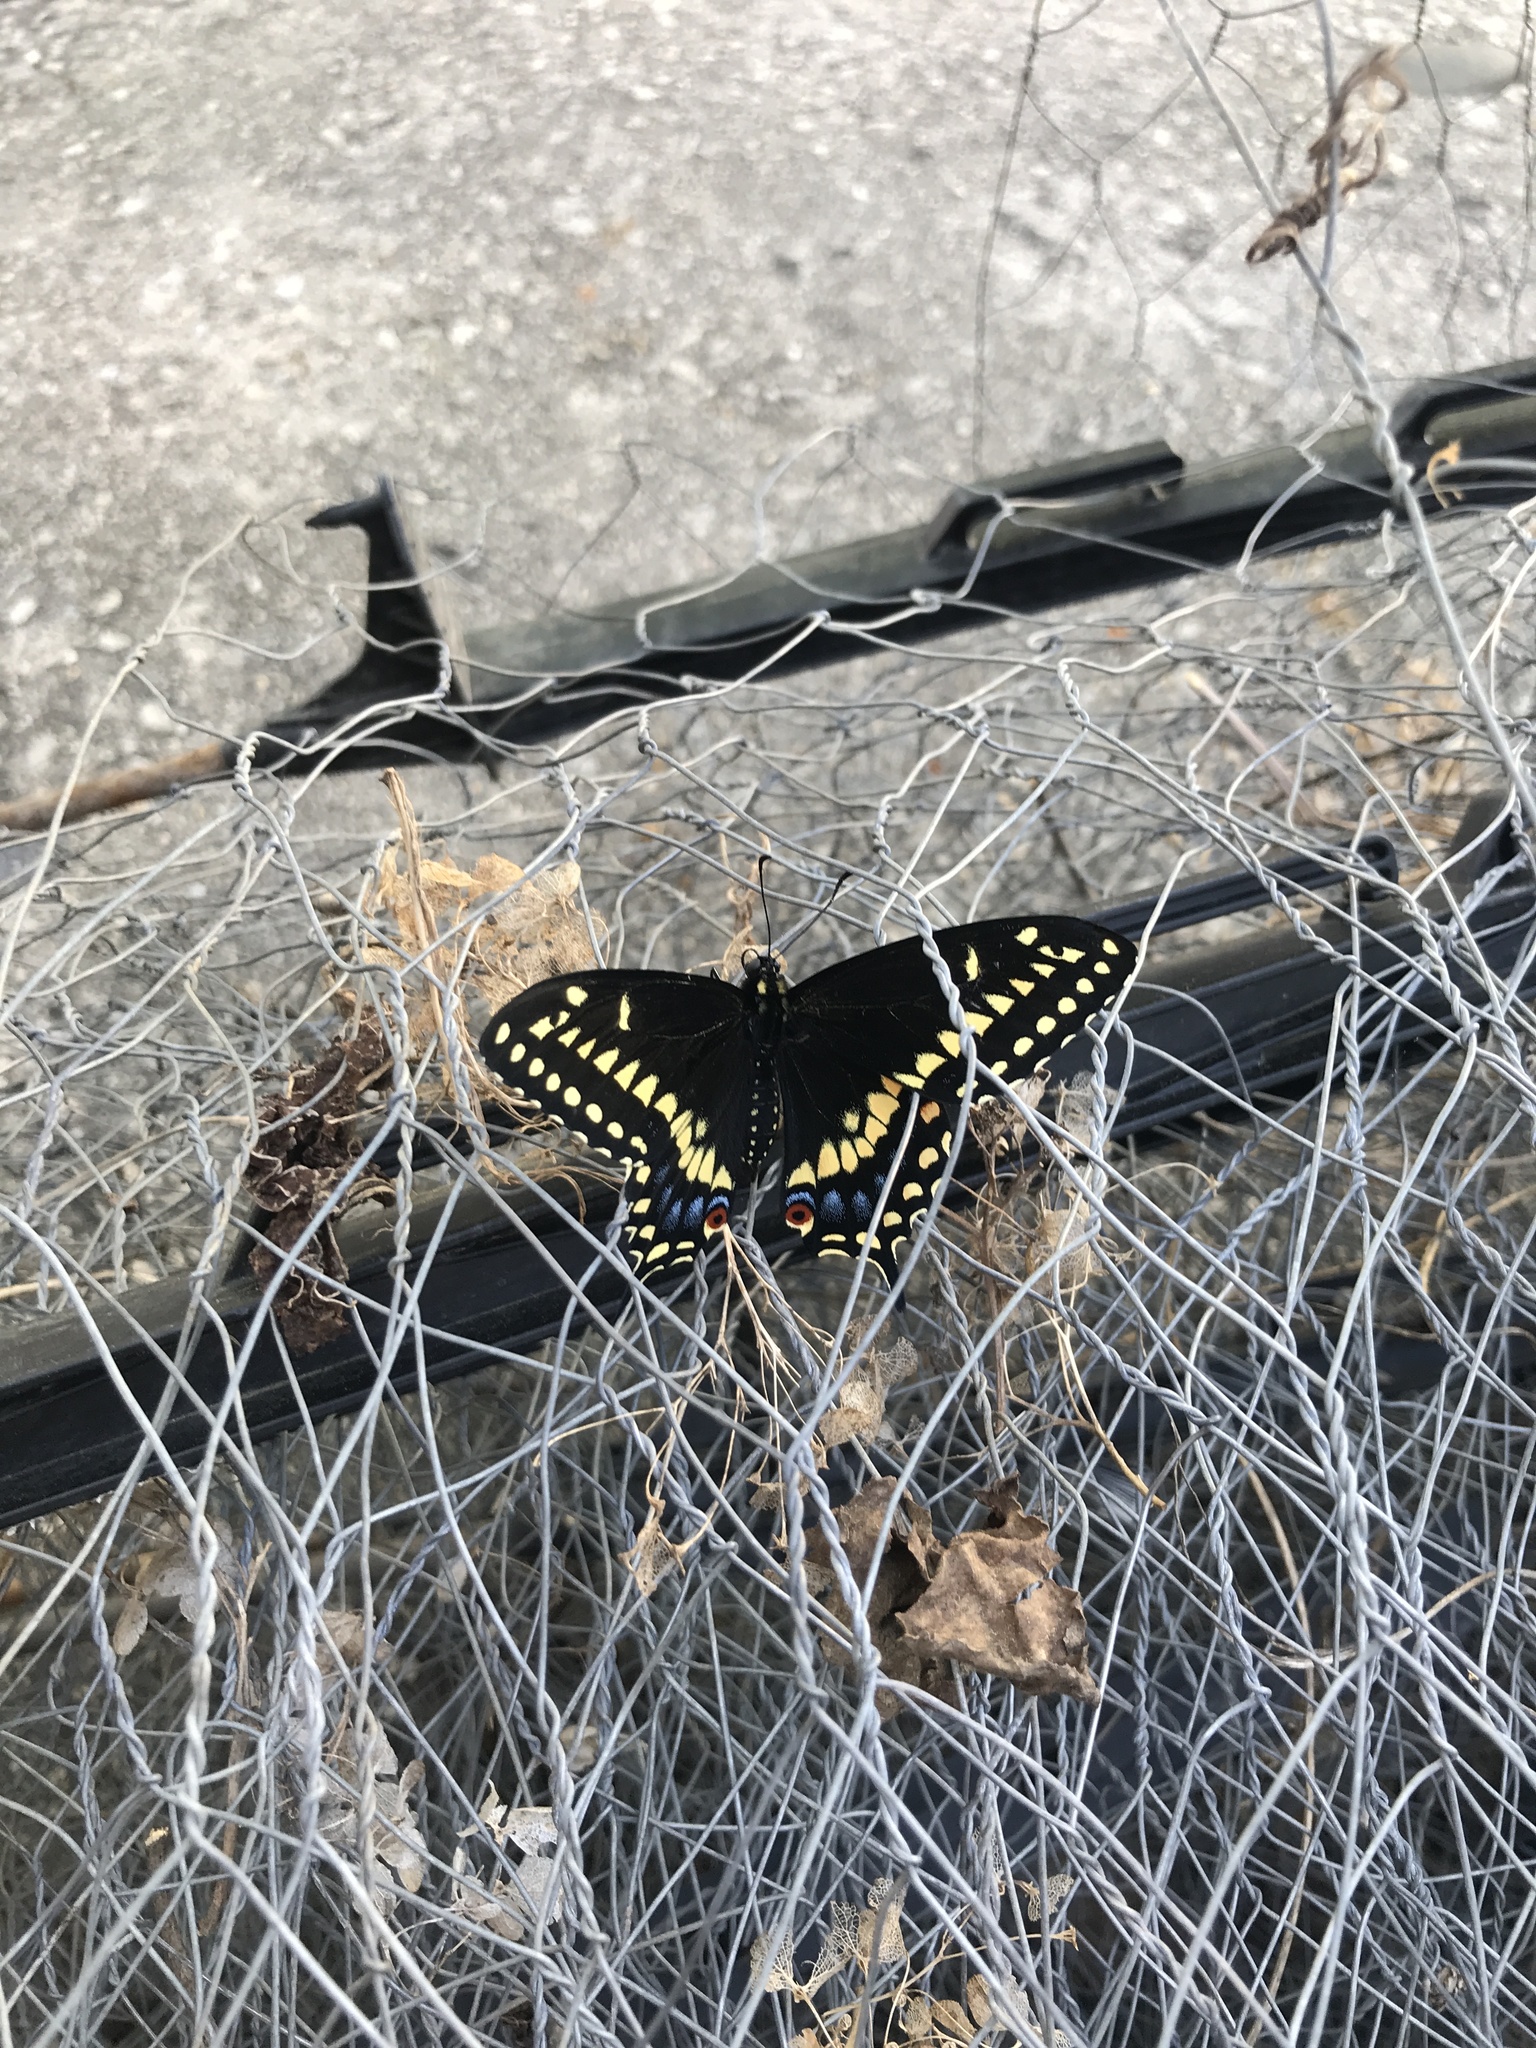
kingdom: Animalia
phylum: Arthropoda
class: Insecta
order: Lepidoptera
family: Papilionidae
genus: Papilio
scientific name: Papilio polyxenes
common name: Black swallowtail
